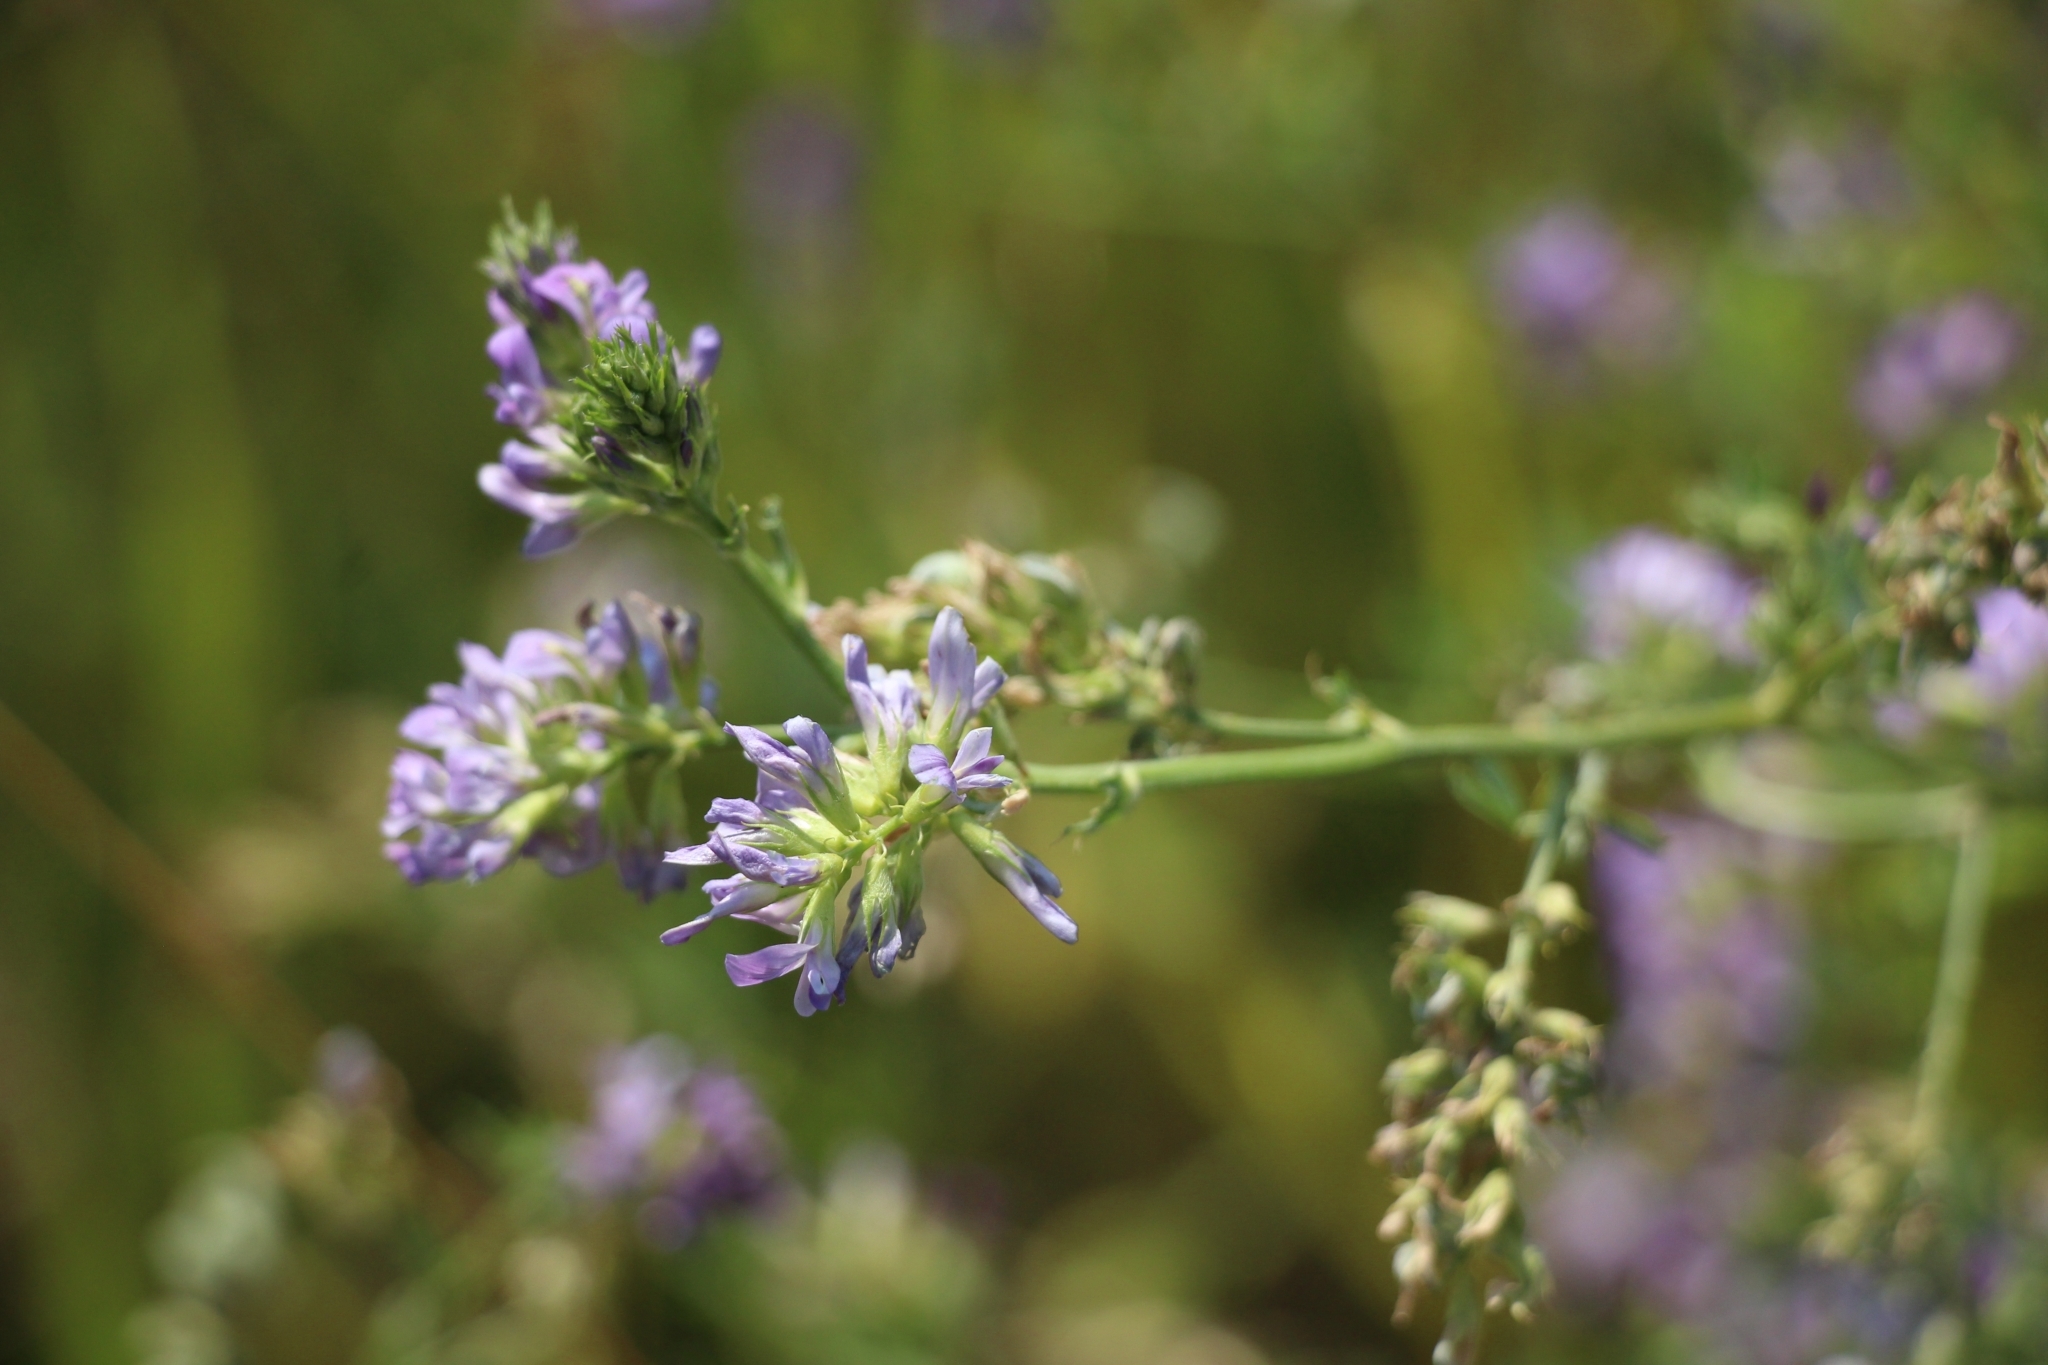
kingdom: Plantae
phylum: Tracheophyta
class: Magnoliopsida
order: Fabales
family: Fabaceae
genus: Medicago
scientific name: Medicago sativa
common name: Alfalfa
